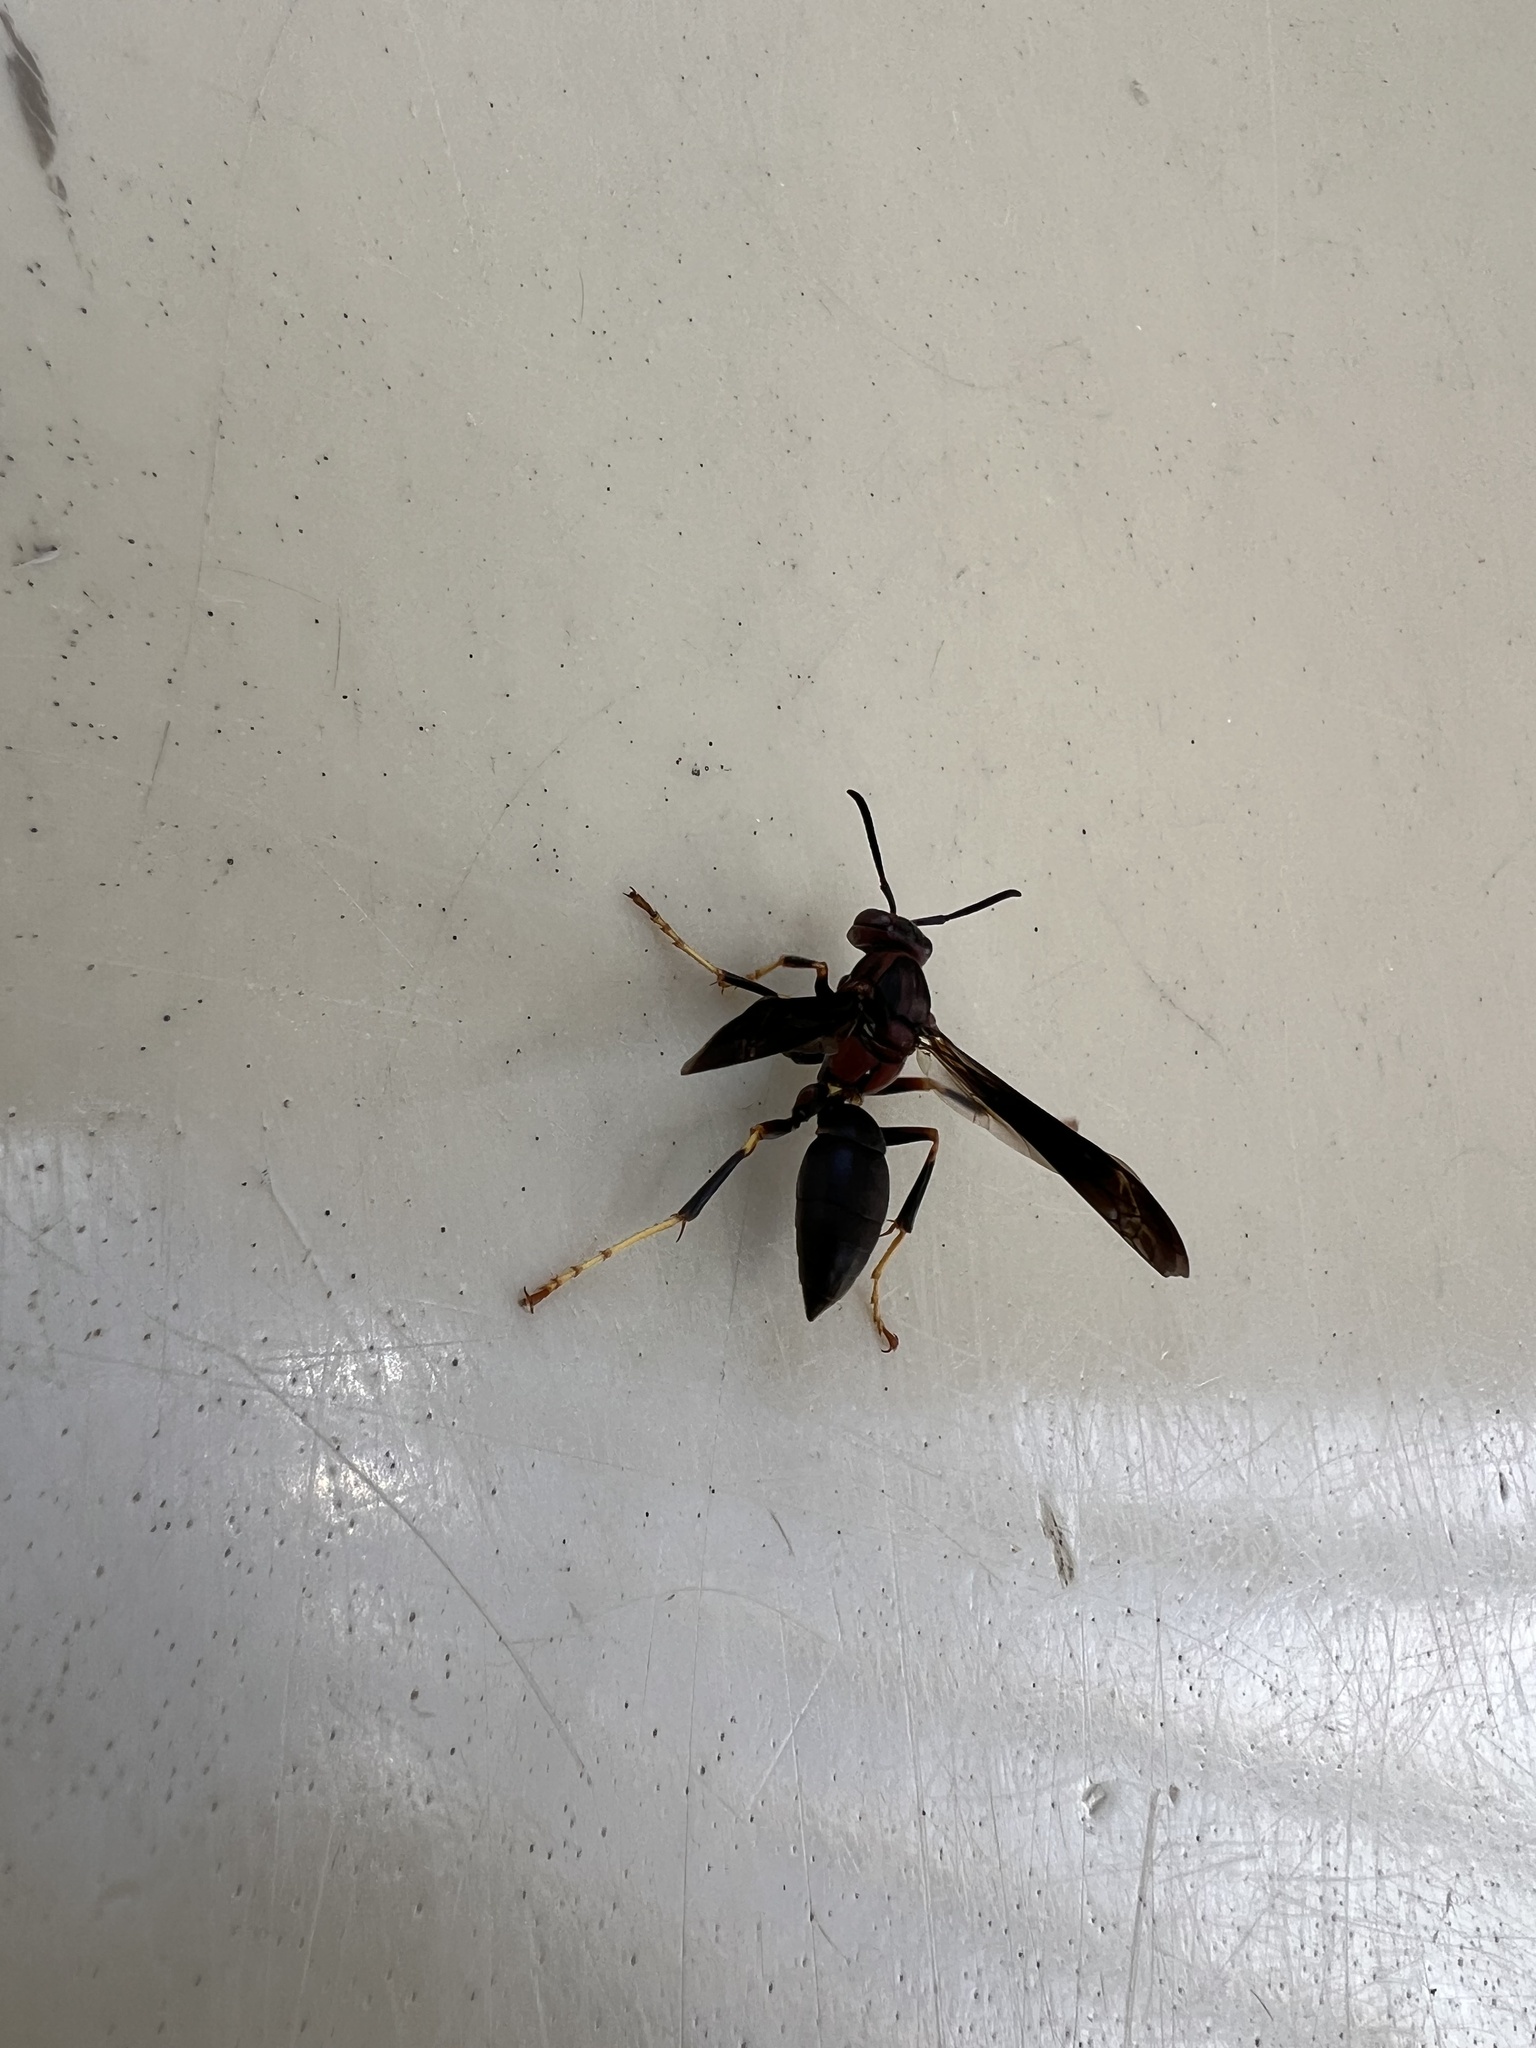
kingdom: Animalia
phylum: Arthropoda
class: Insecta
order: Hymenoptera
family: Eumenidae
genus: Polistes
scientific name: Polistes metricus
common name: Metric paper wasp
